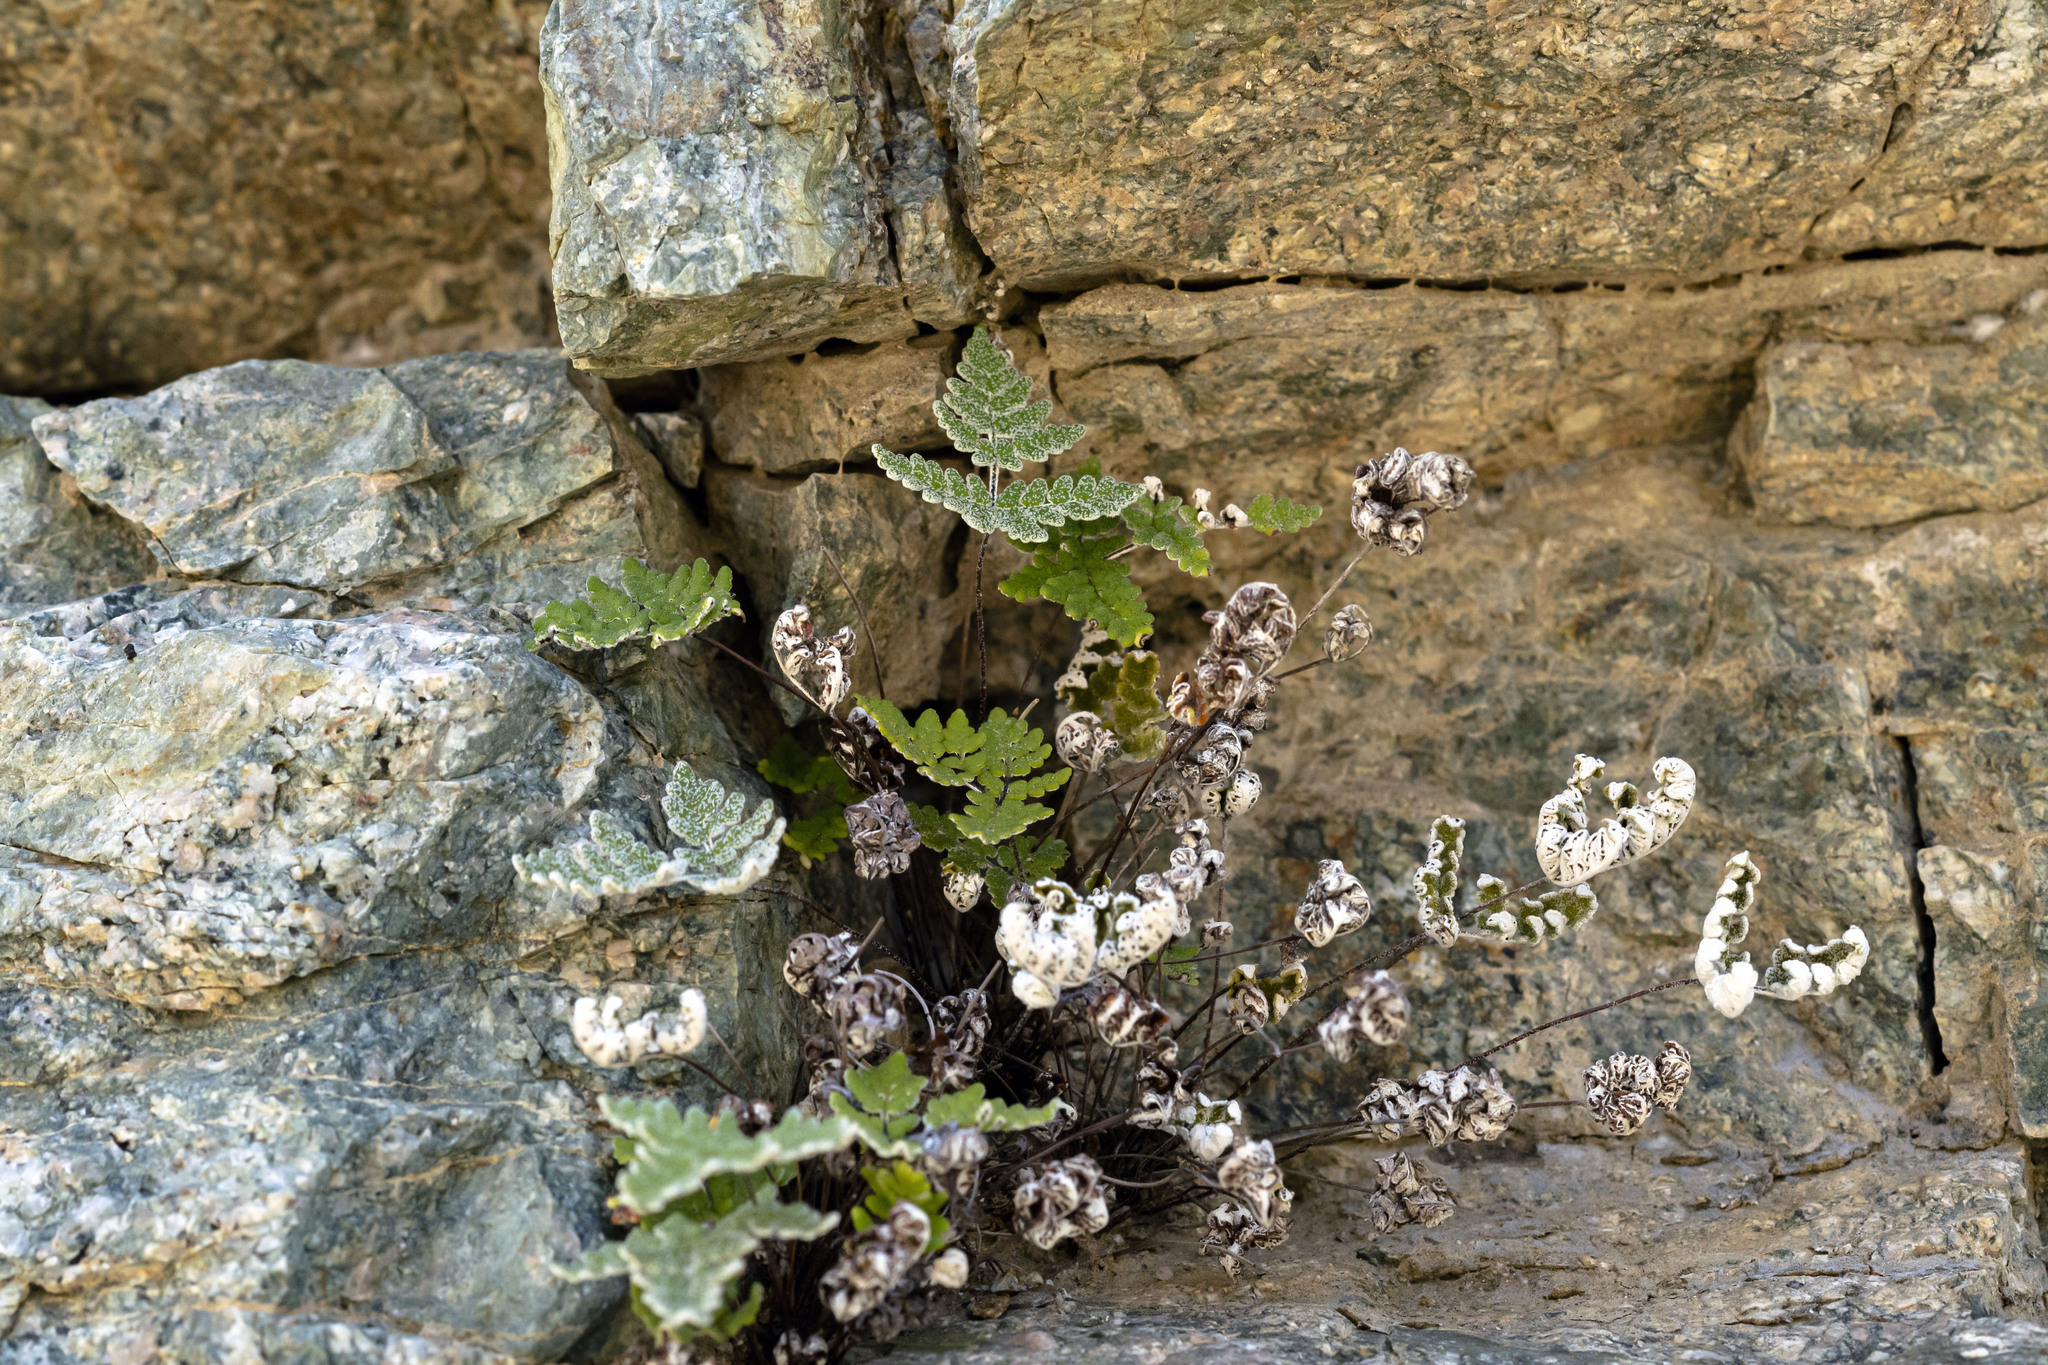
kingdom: Plantae
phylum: Tracheophyta
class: Polypodiopsida
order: Polypodiales
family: Pteridaceae
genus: Notholaena
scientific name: Notholaena californica
